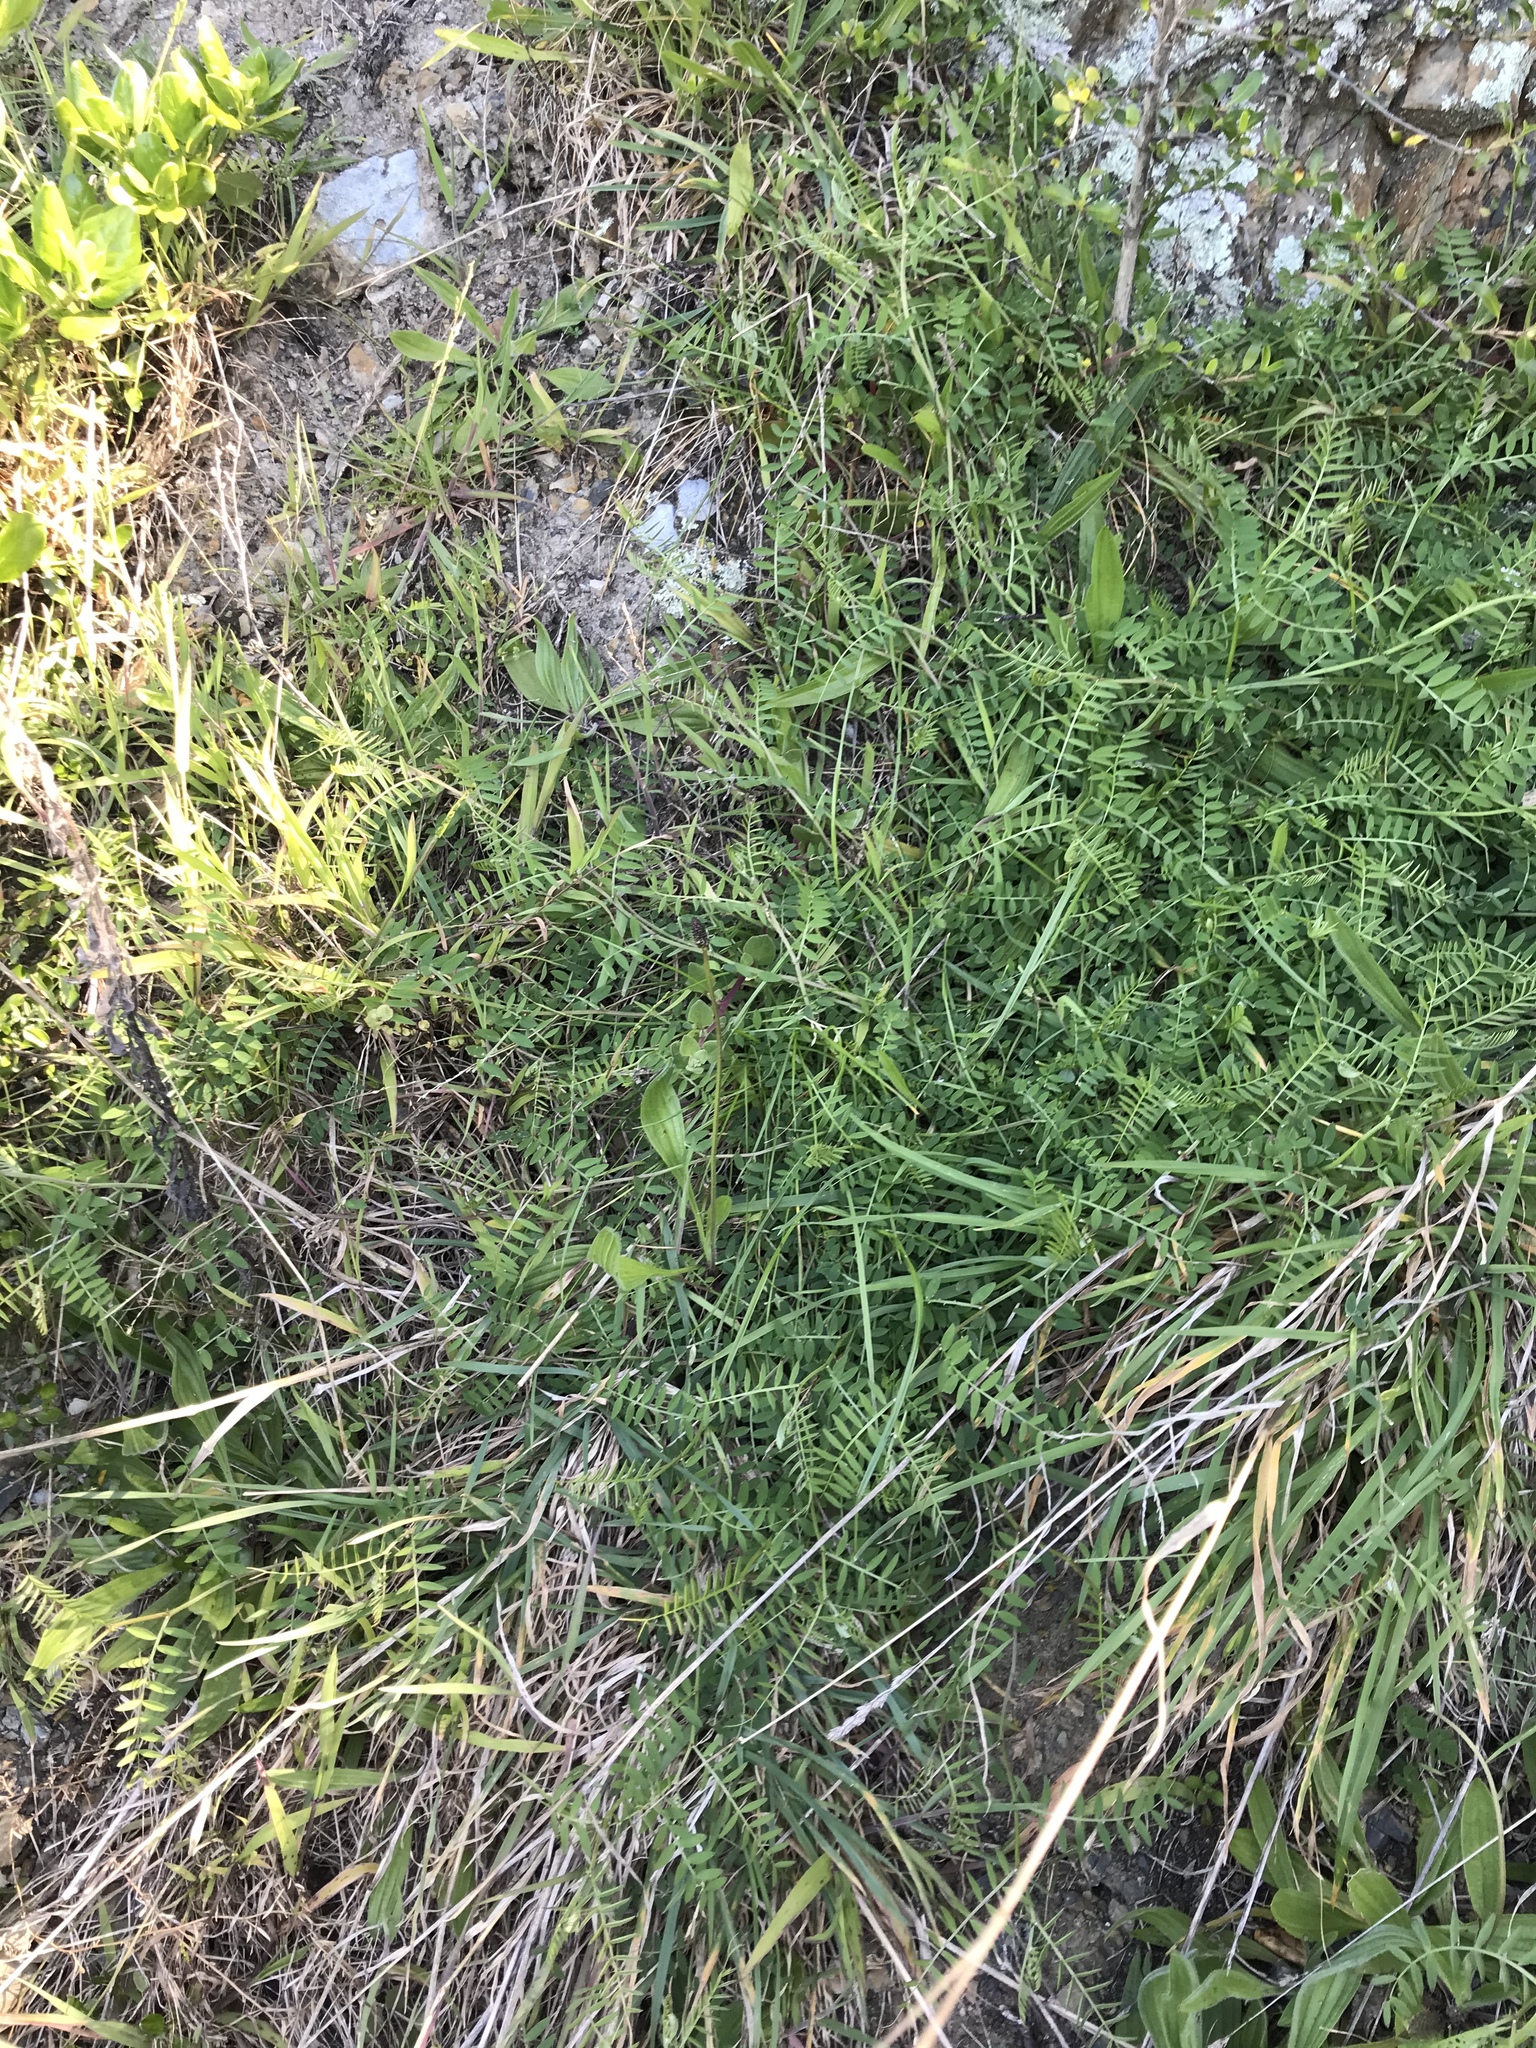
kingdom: Plantae
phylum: Tracheophyta
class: Magnoliopsida
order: Fabales
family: Fabaceae
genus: Vicia
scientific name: Vicia sativa
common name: Garden vetch
